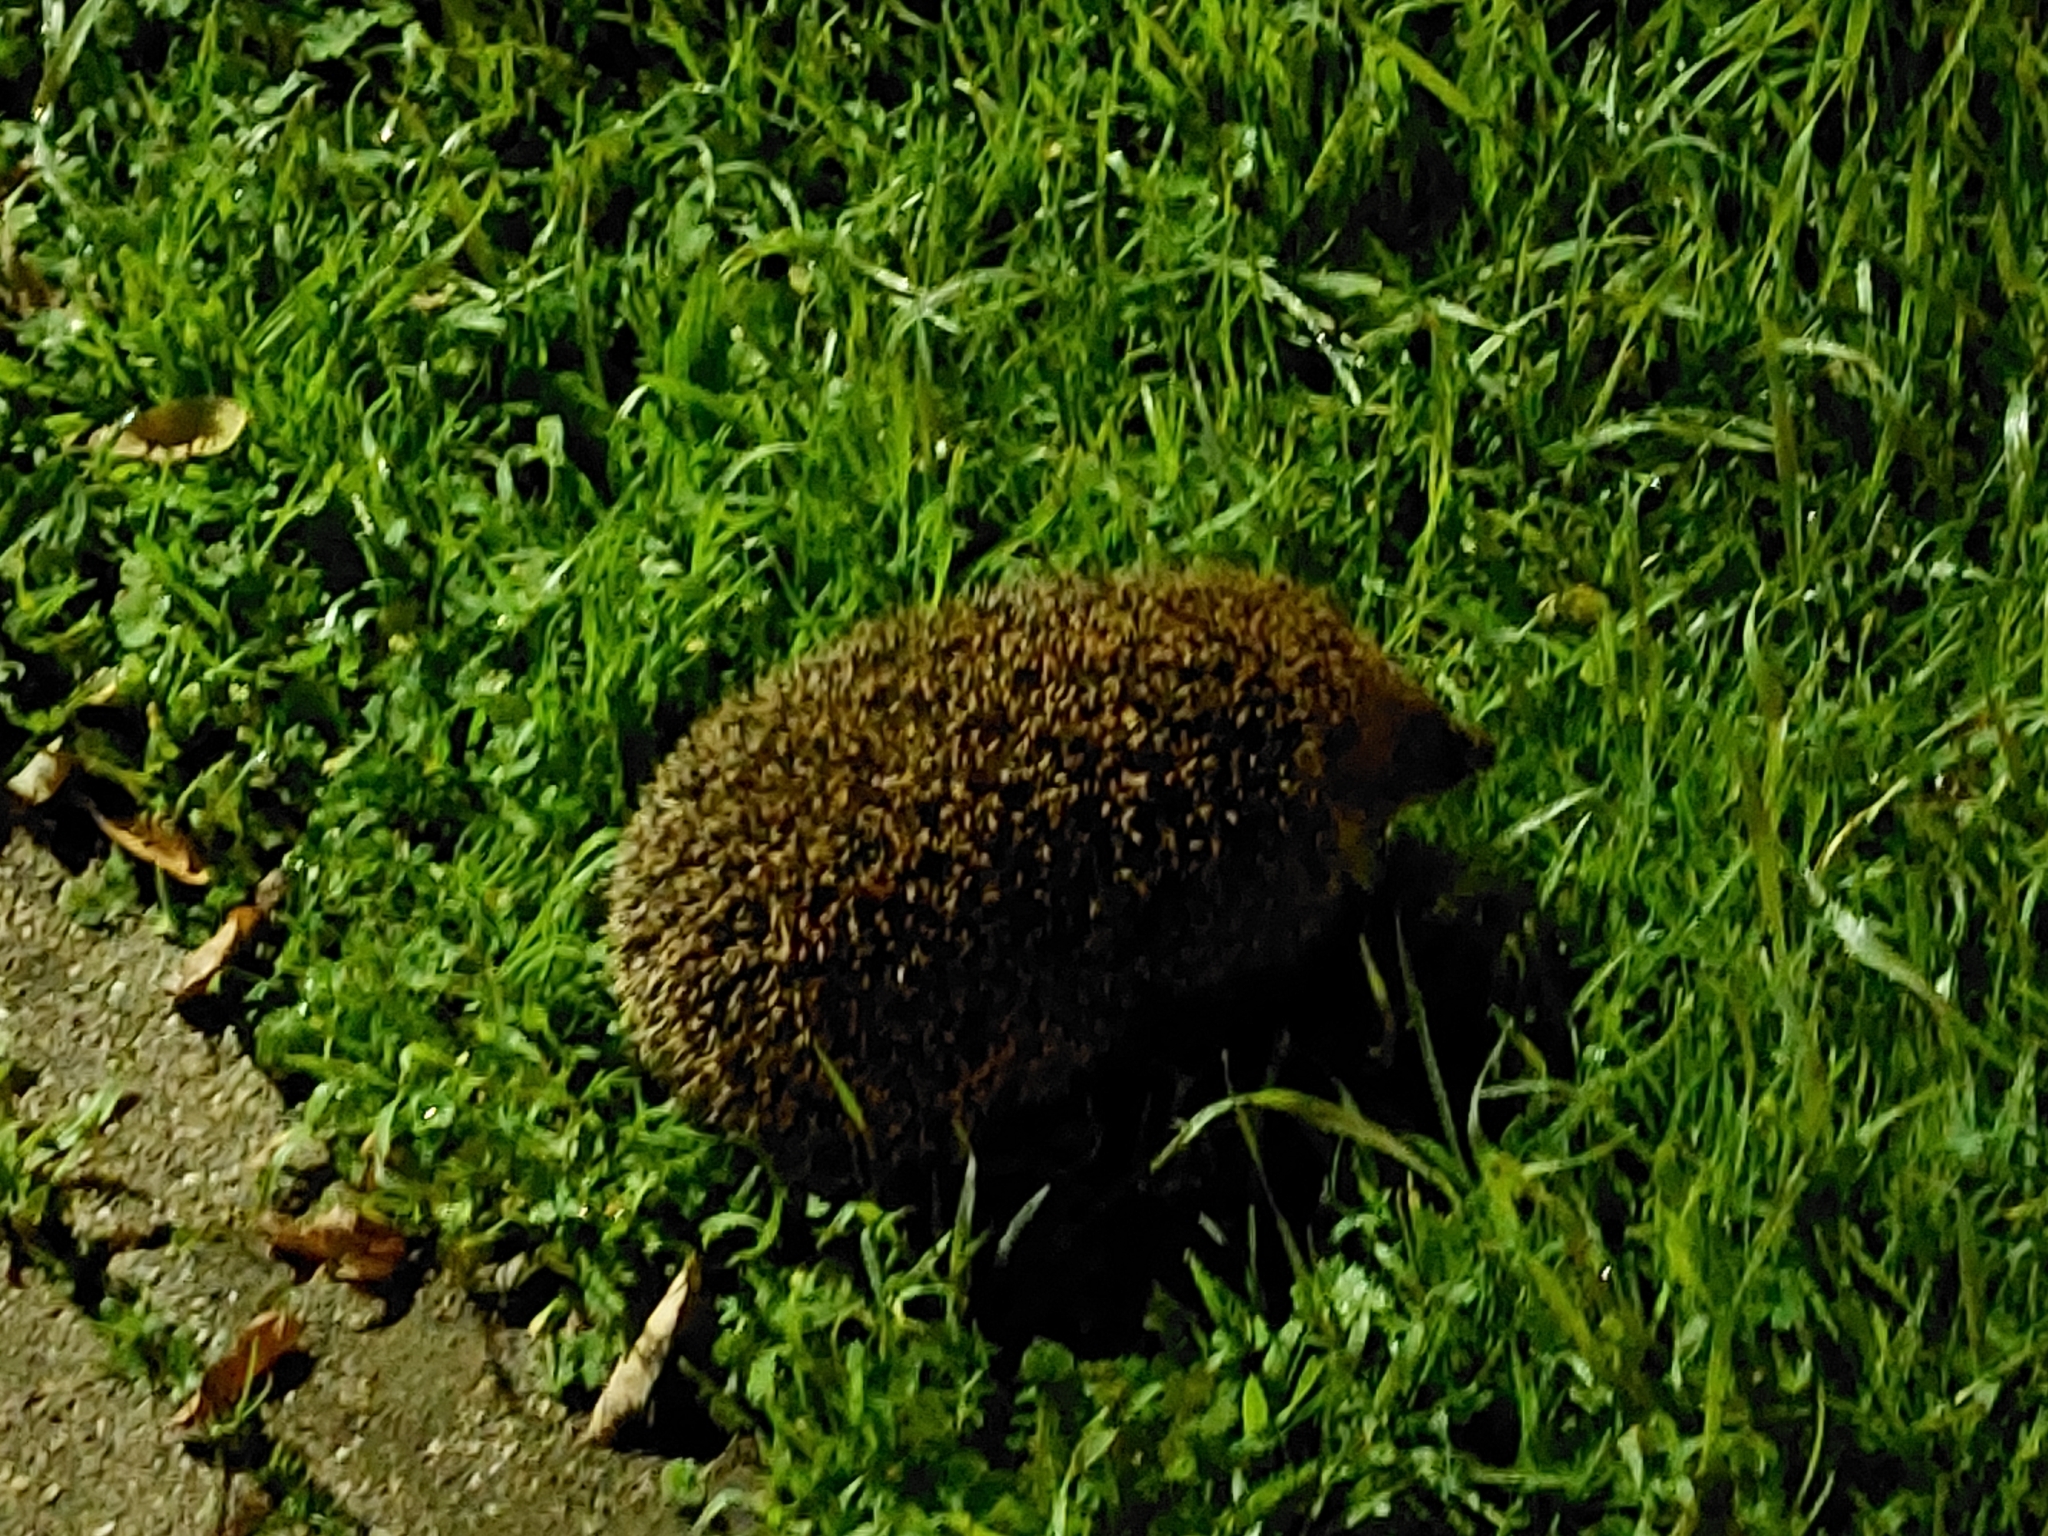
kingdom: Animalia
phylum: Chordata
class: Mammalia
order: Erinaceomorpha
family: Erinaceidae
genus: Erinaceus
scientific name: Erinaceus europaeus
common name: West european hedgehog
